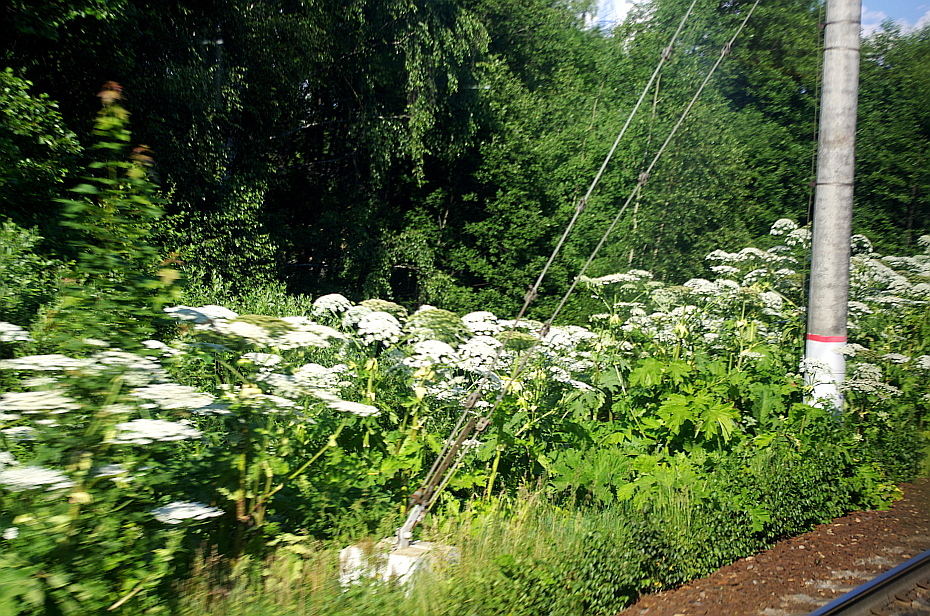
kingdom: Plantae
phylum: Tracheophyta
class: Magnoliopsida
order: Apiales
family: Apiaceae
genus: Heracleum
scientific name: Heracleum sosnowskyi
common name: Sosnowsky's hogweed
